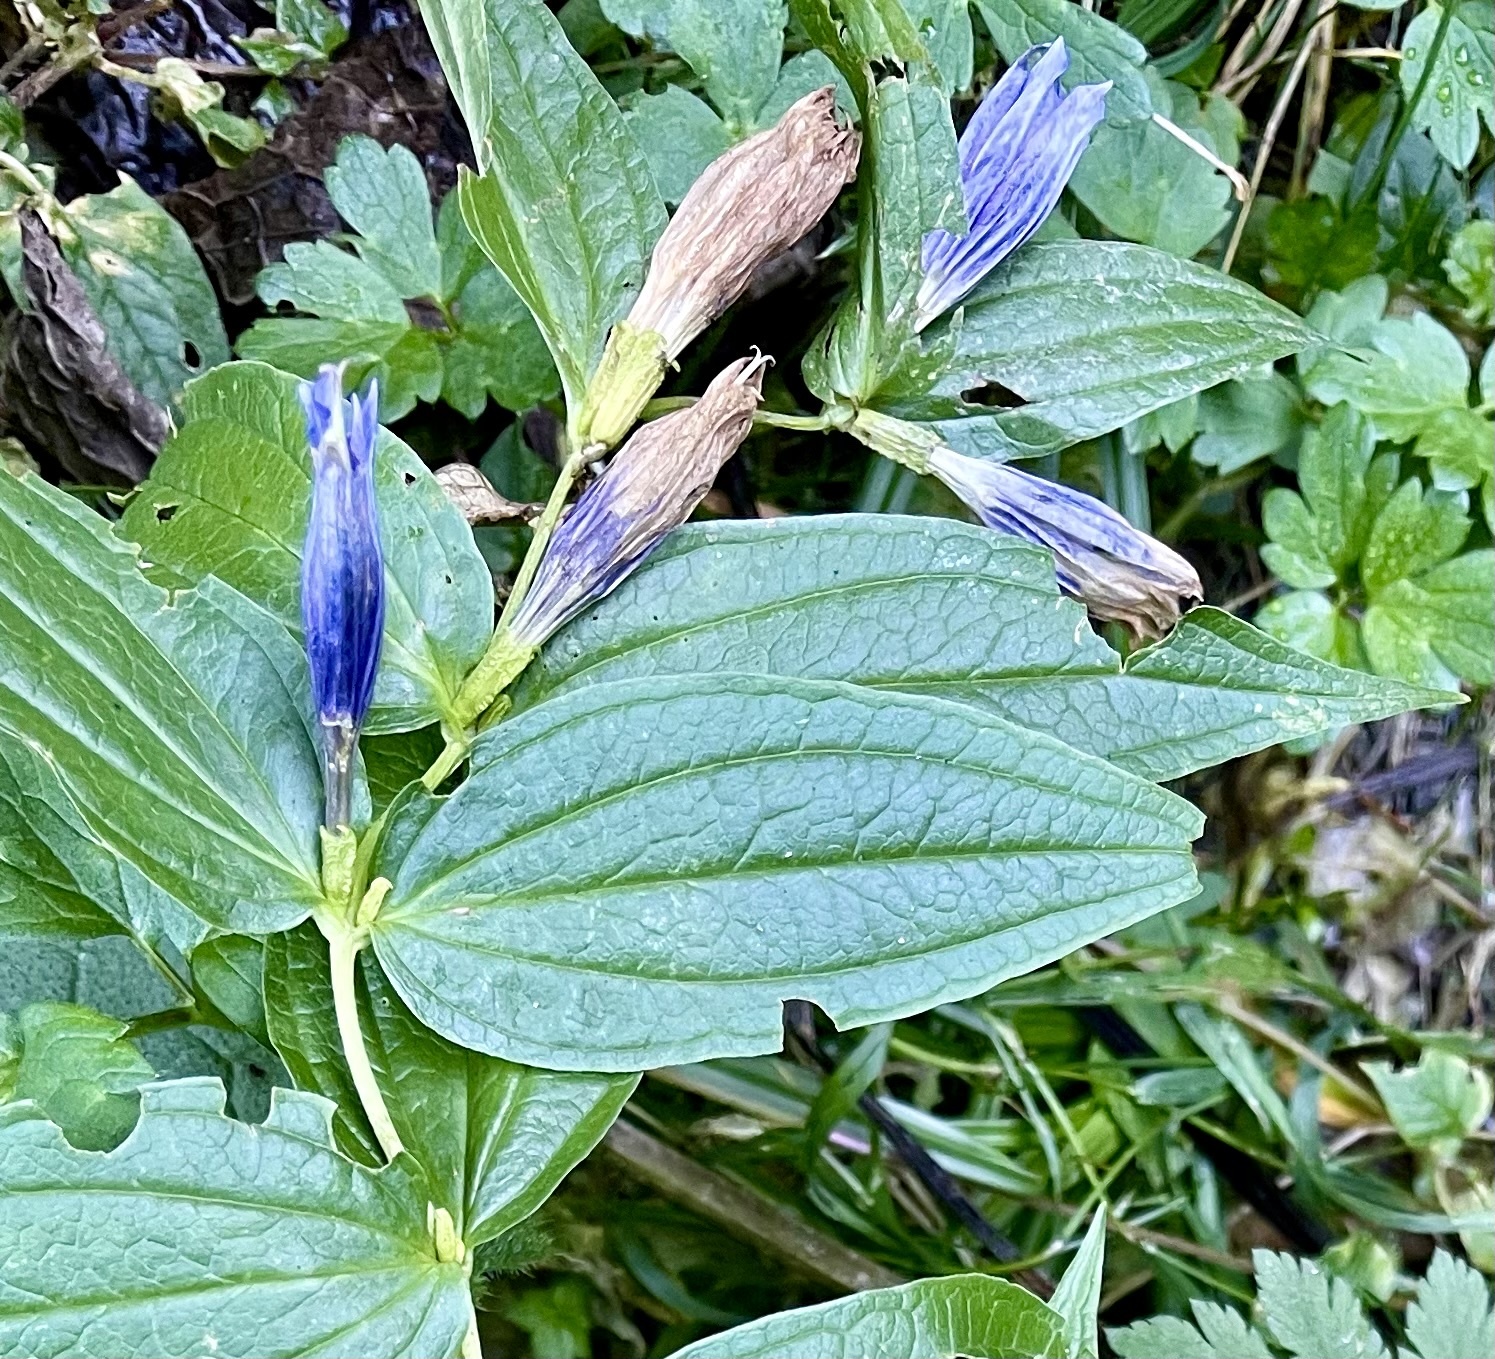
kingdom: Plantae
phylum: Tracheophyta
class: Magnoliopsida
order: Gentianales
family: Gentianaceae
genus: Gentiana
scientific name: Gentiana asclepiadea
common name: Willow gentian
